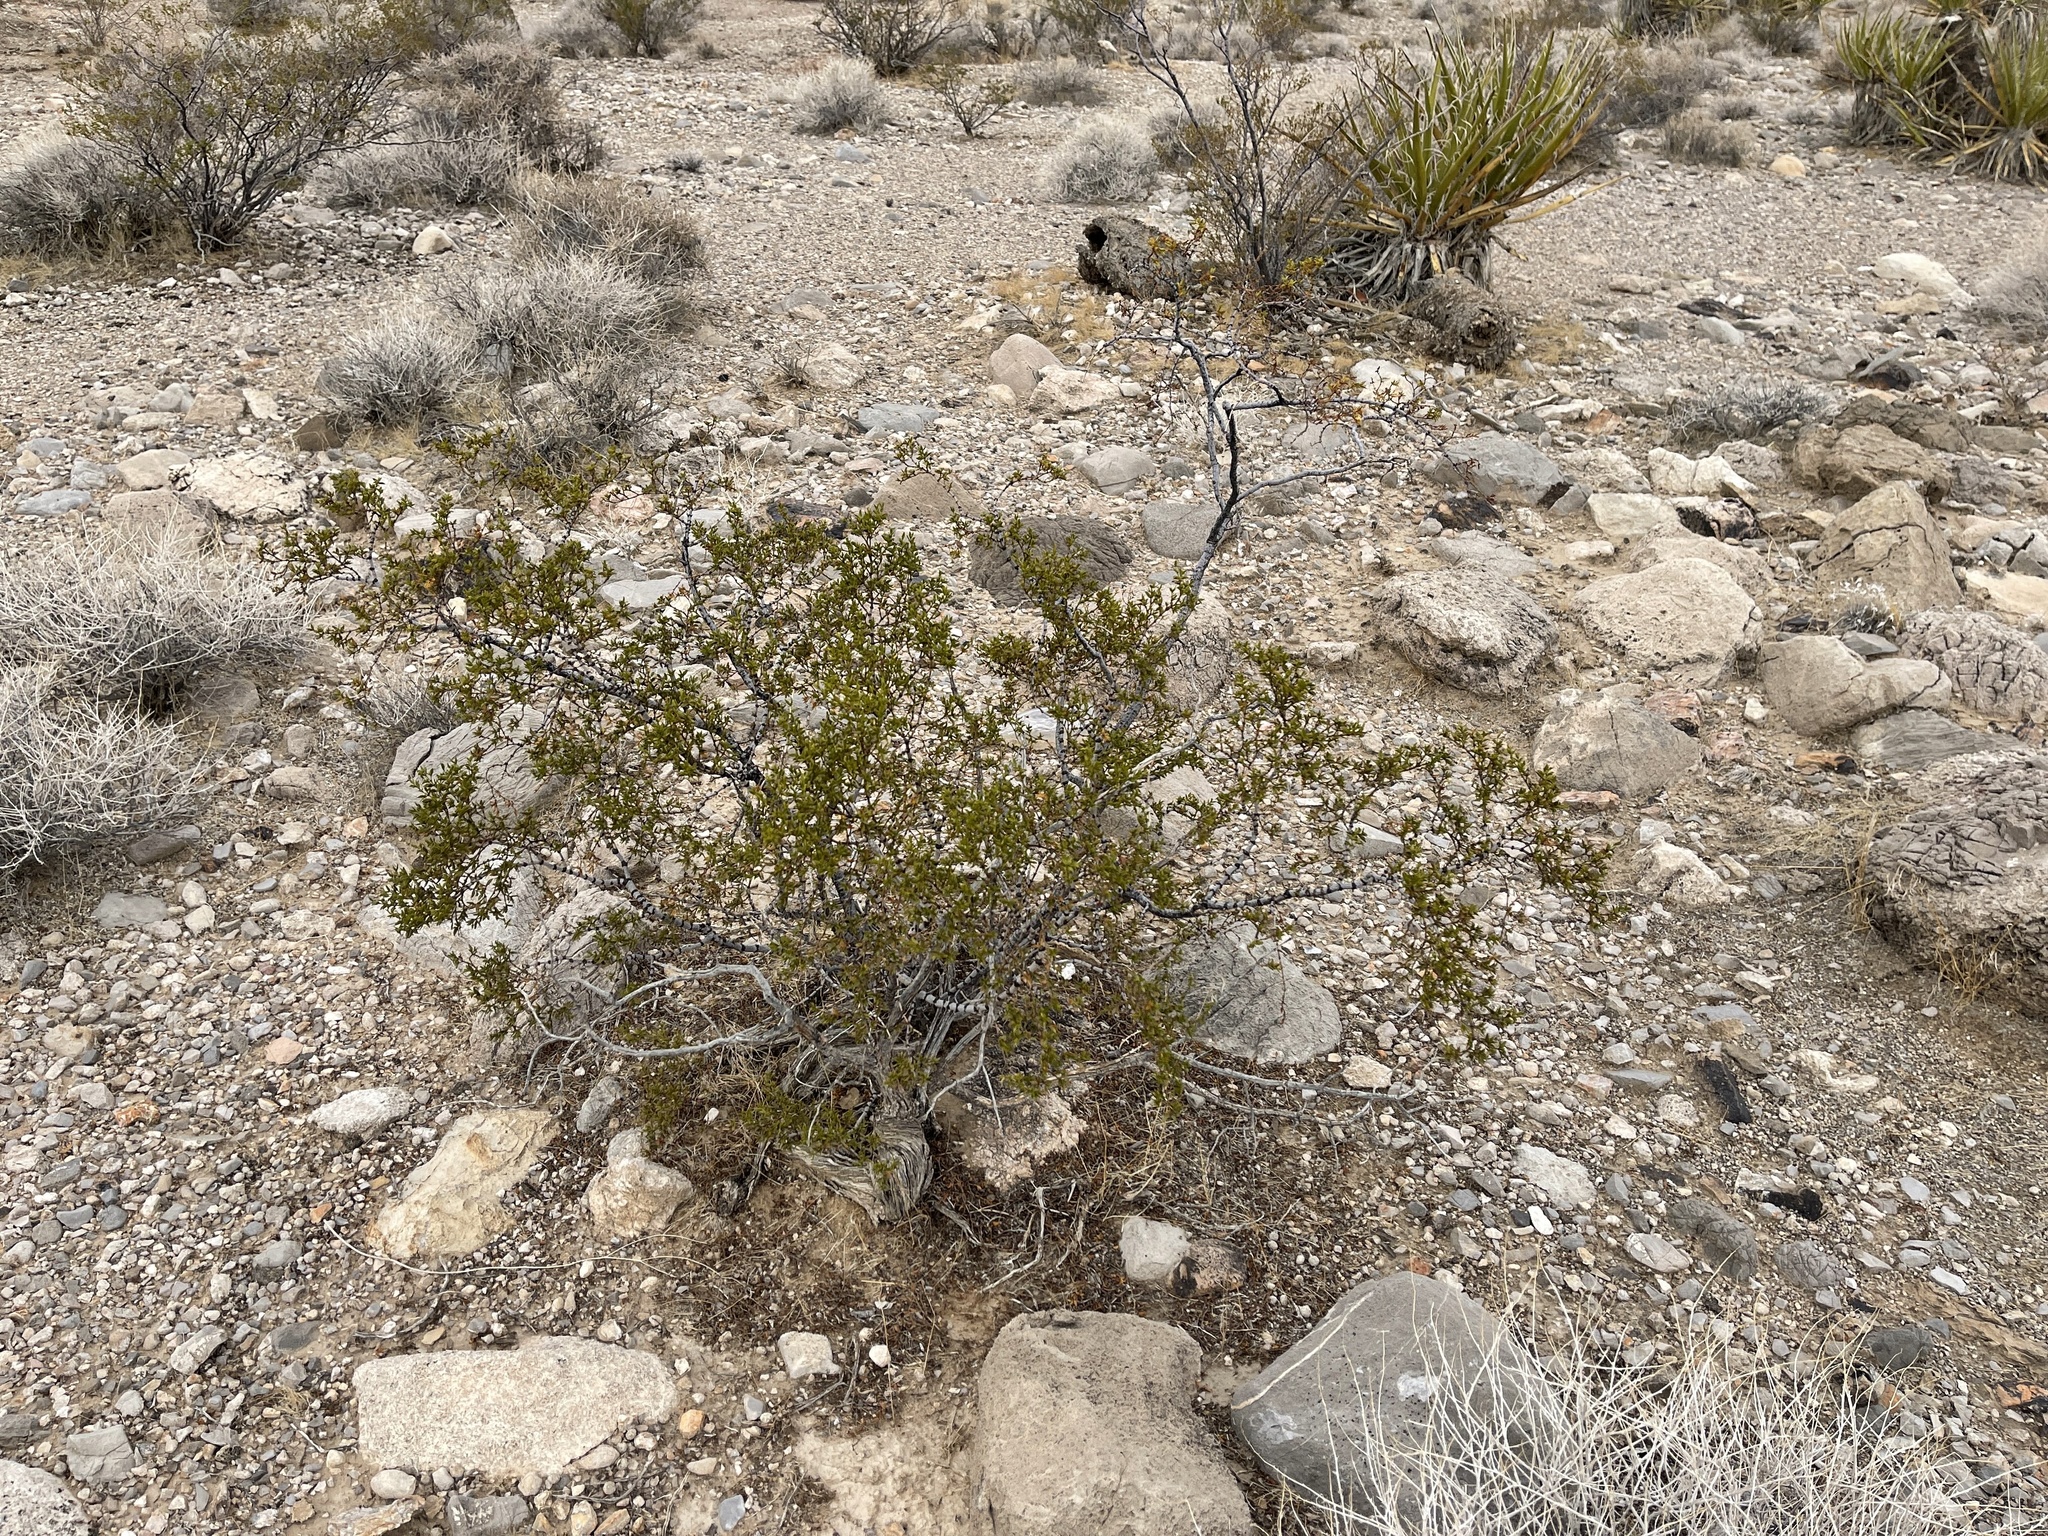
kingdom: Plantae
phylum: Tracheophyta
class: Magnoliopsida
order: Zygophyllales
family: Zygophyllaceae
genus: Larrea
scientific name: Larrea tridentata
